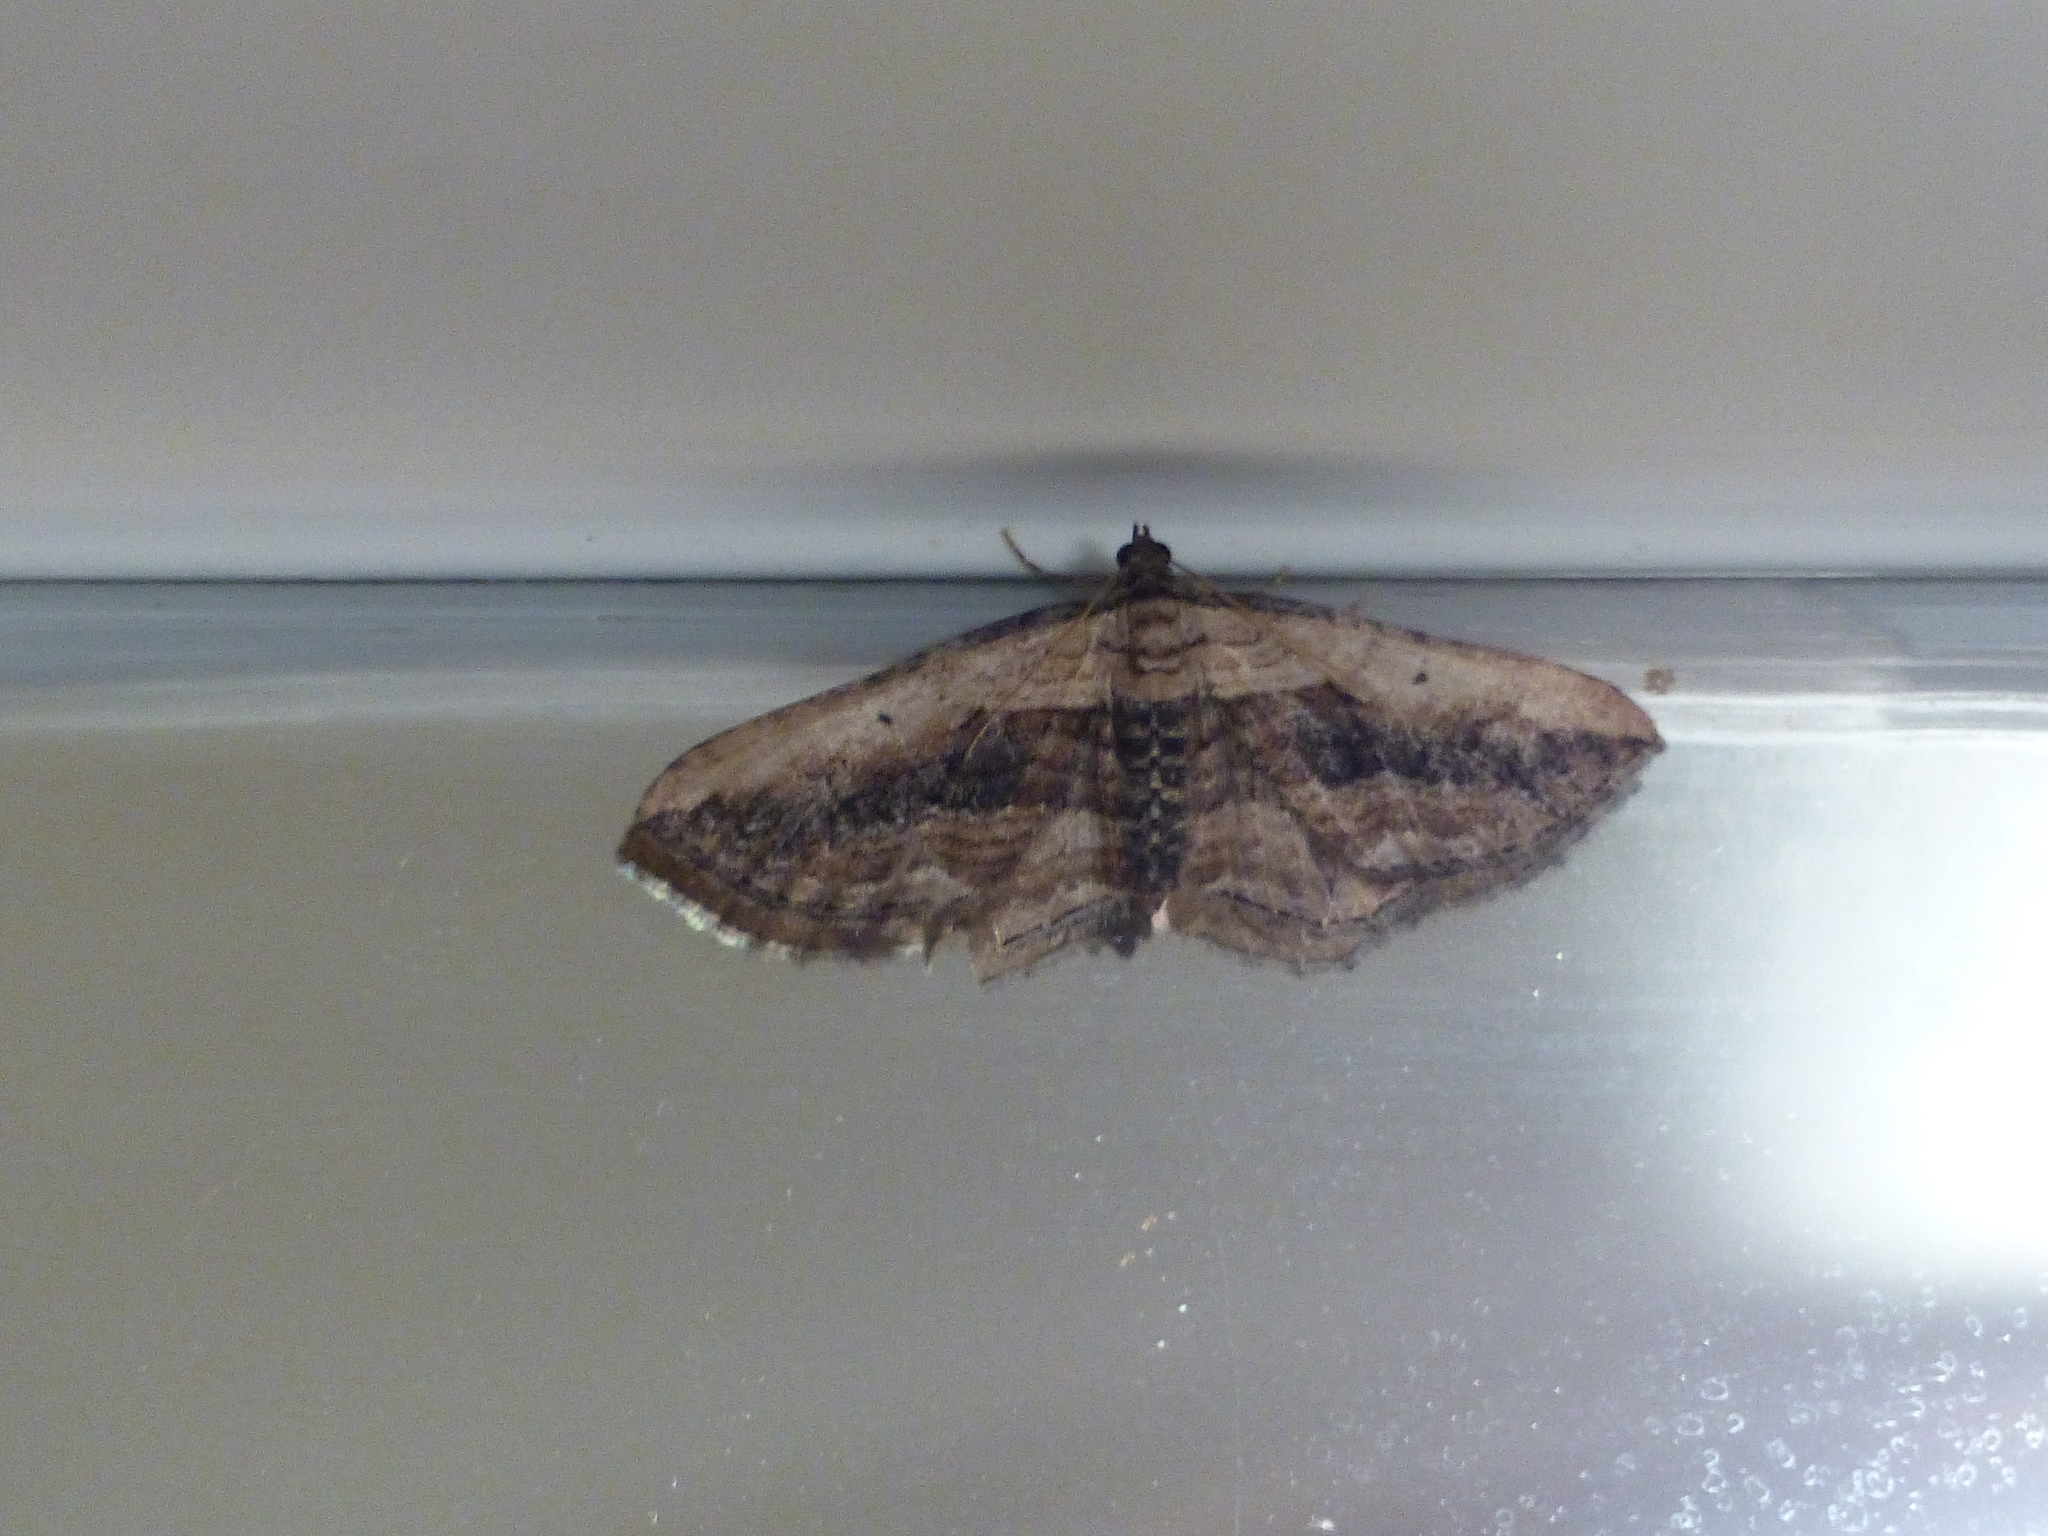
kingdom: Animalia
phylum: Arthropoda
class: Insecta
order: Lepidoptera
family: Geometridae
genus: Horisme
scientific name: Horisme vitalbata
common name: Small waved umber
